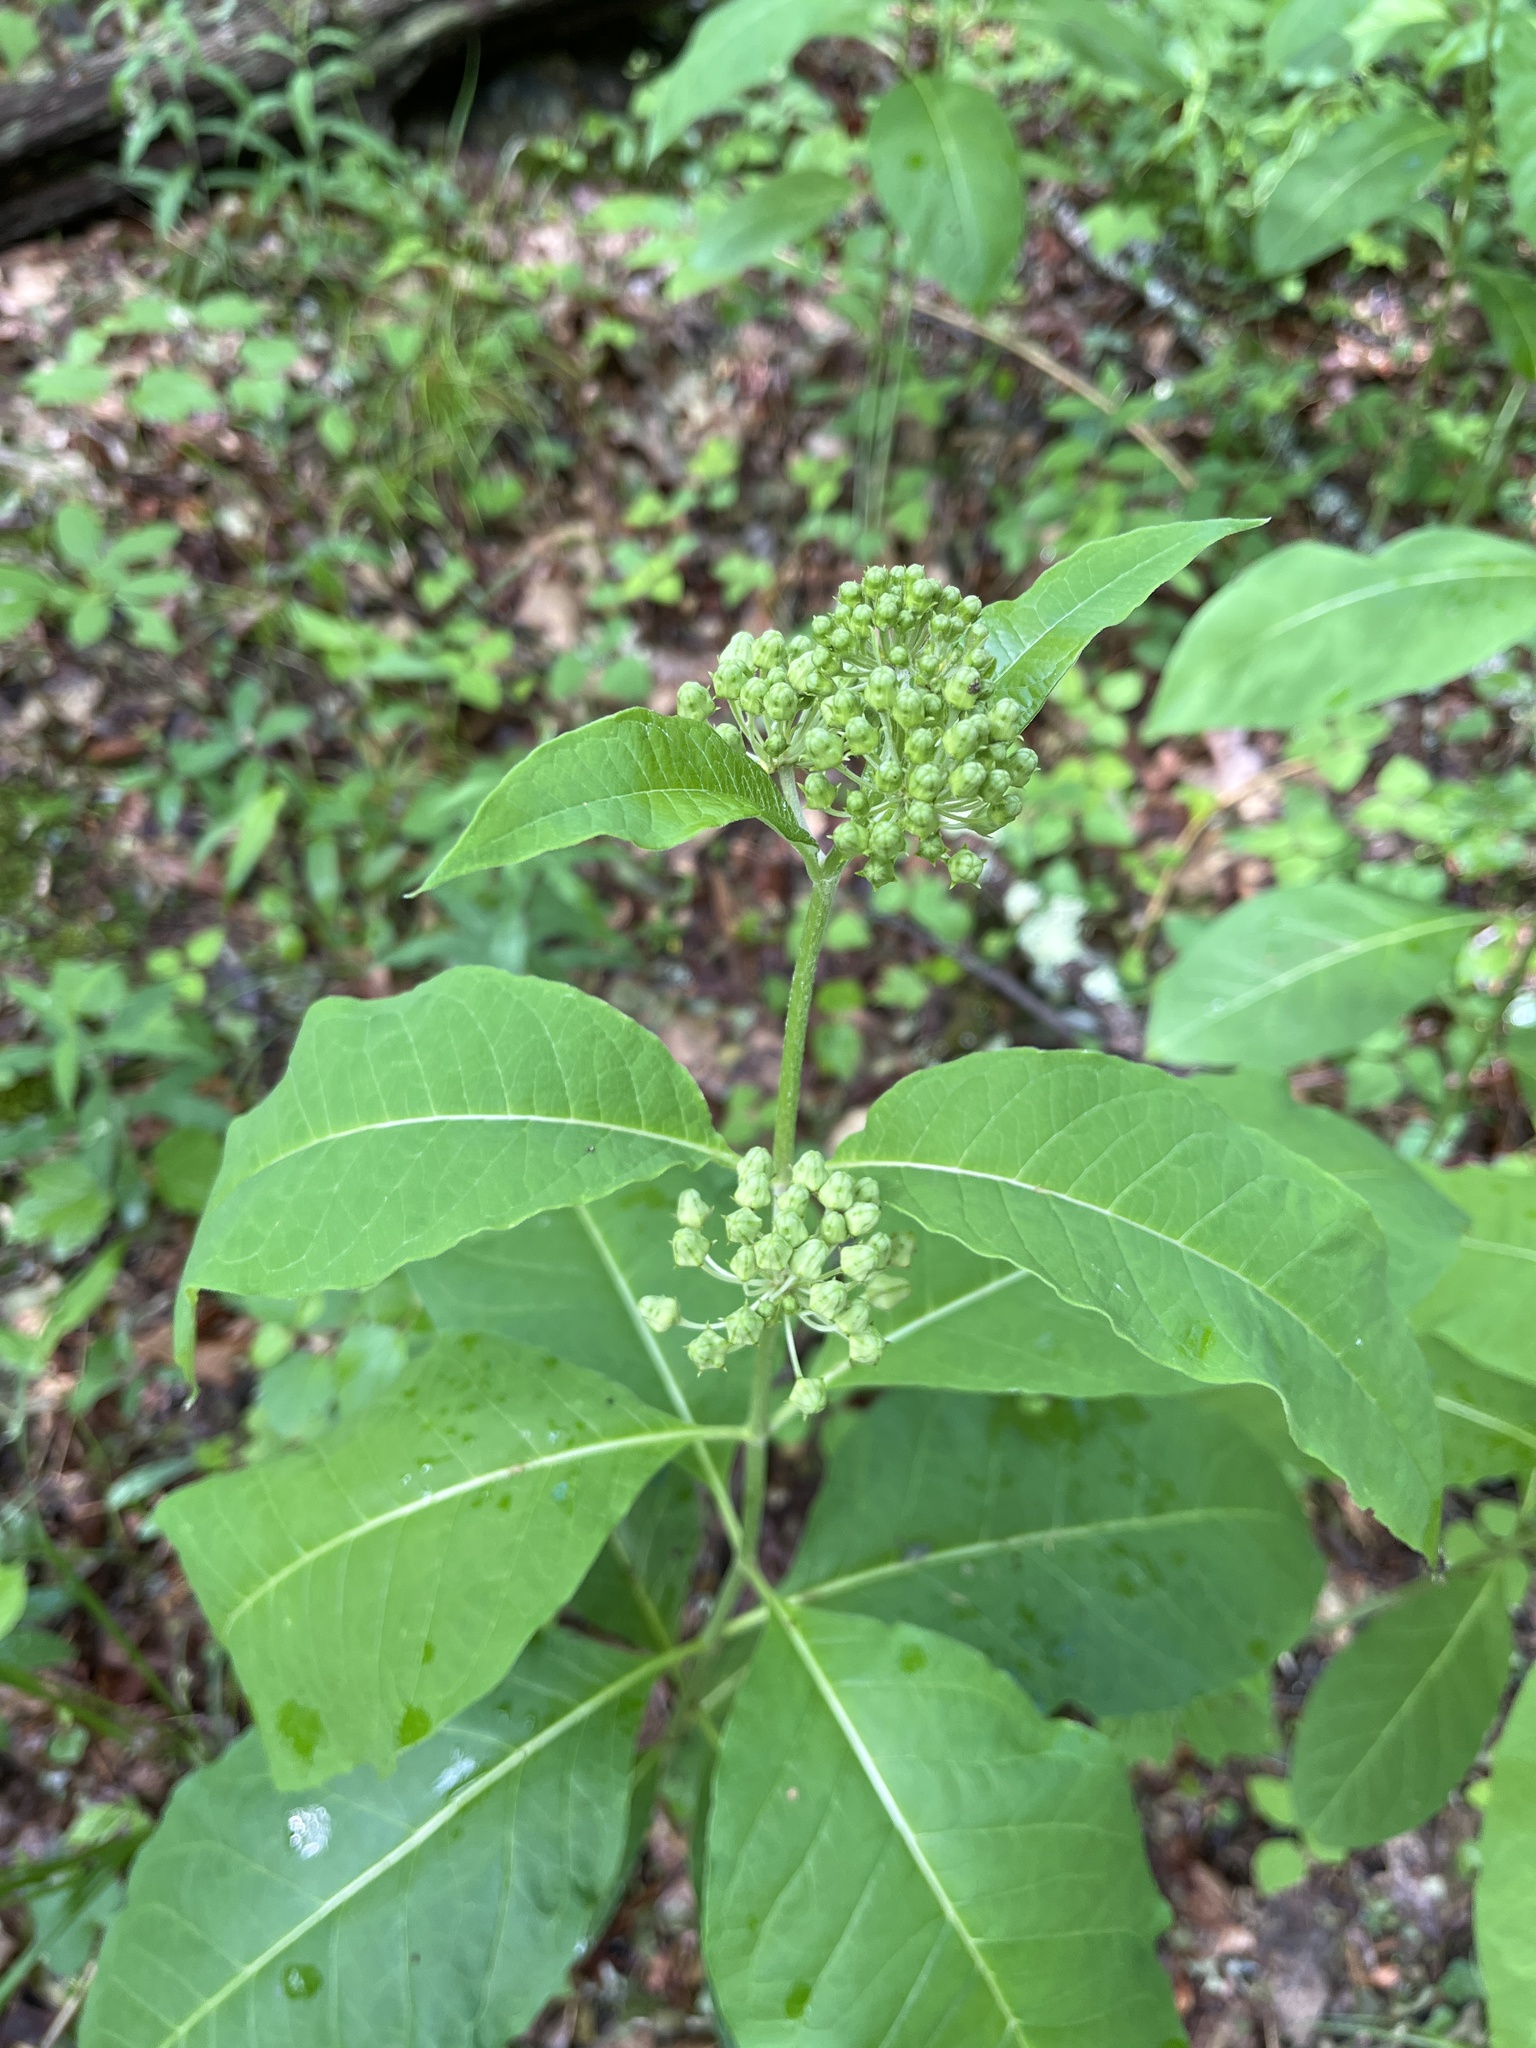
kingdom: Plantae
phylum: Tracheophyta
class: Magnoliopsida
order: Gentianales
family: Apocynaceae
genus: Asclepias
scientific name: Asclepias exaltata
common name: Poke milkweed
